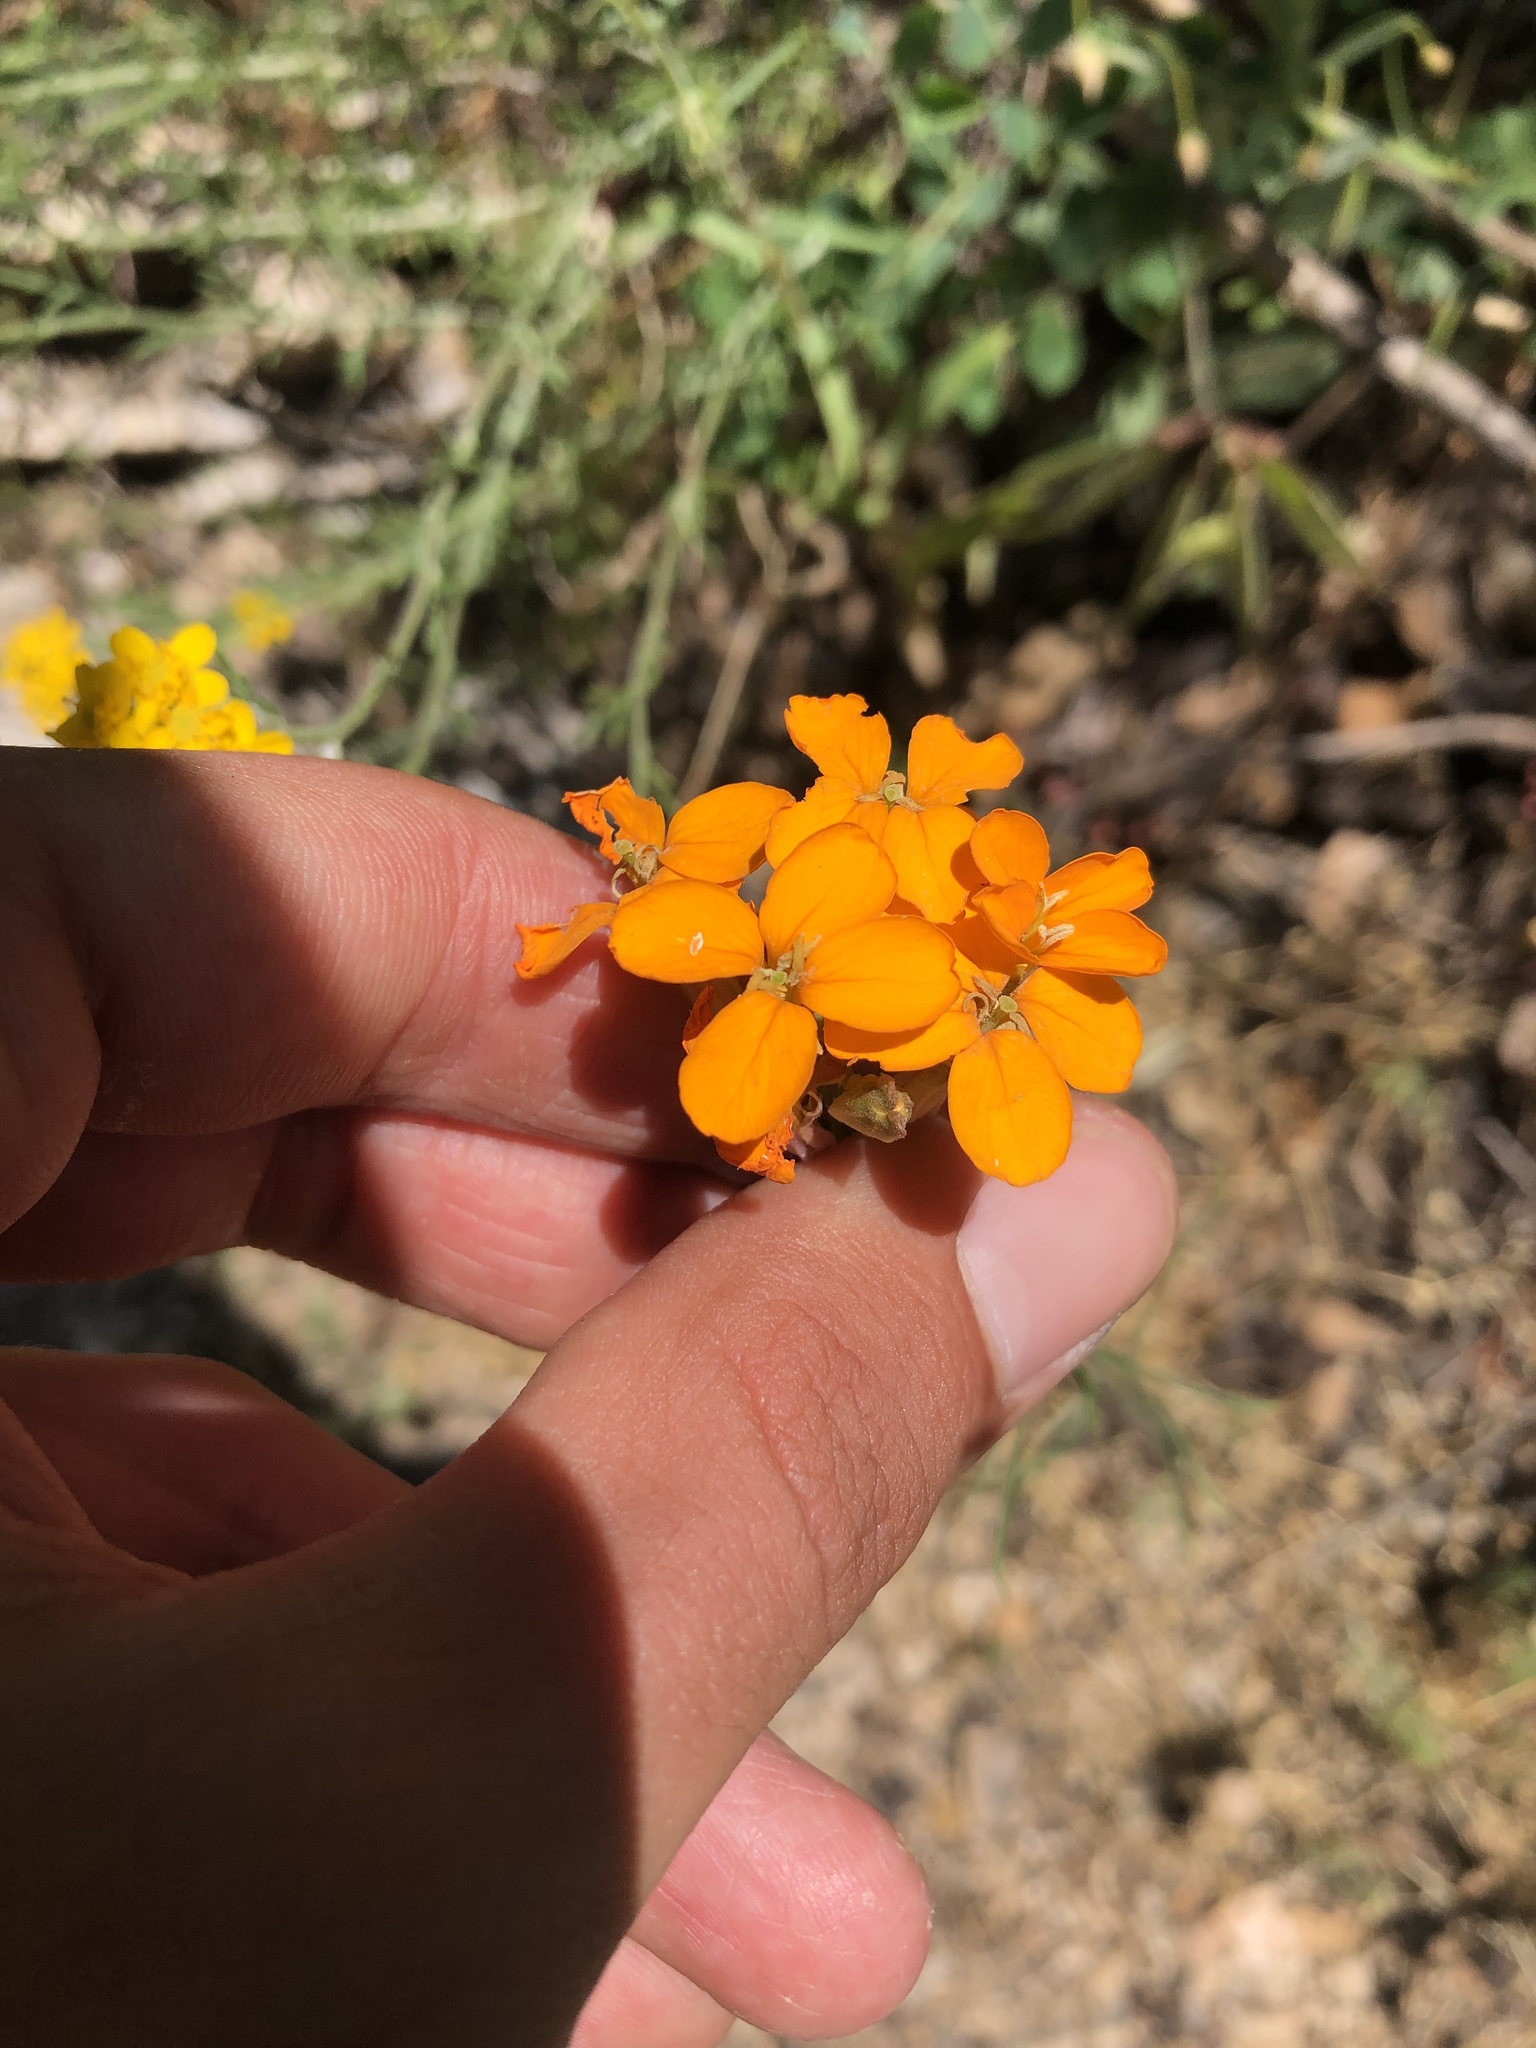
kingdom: Plantae
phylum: Tracheophyta
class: Magnoliopsida
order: Brassicales
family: Brassicaceae
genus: Erysimum
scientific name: Erysimum capitatum
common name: Western wallflower
